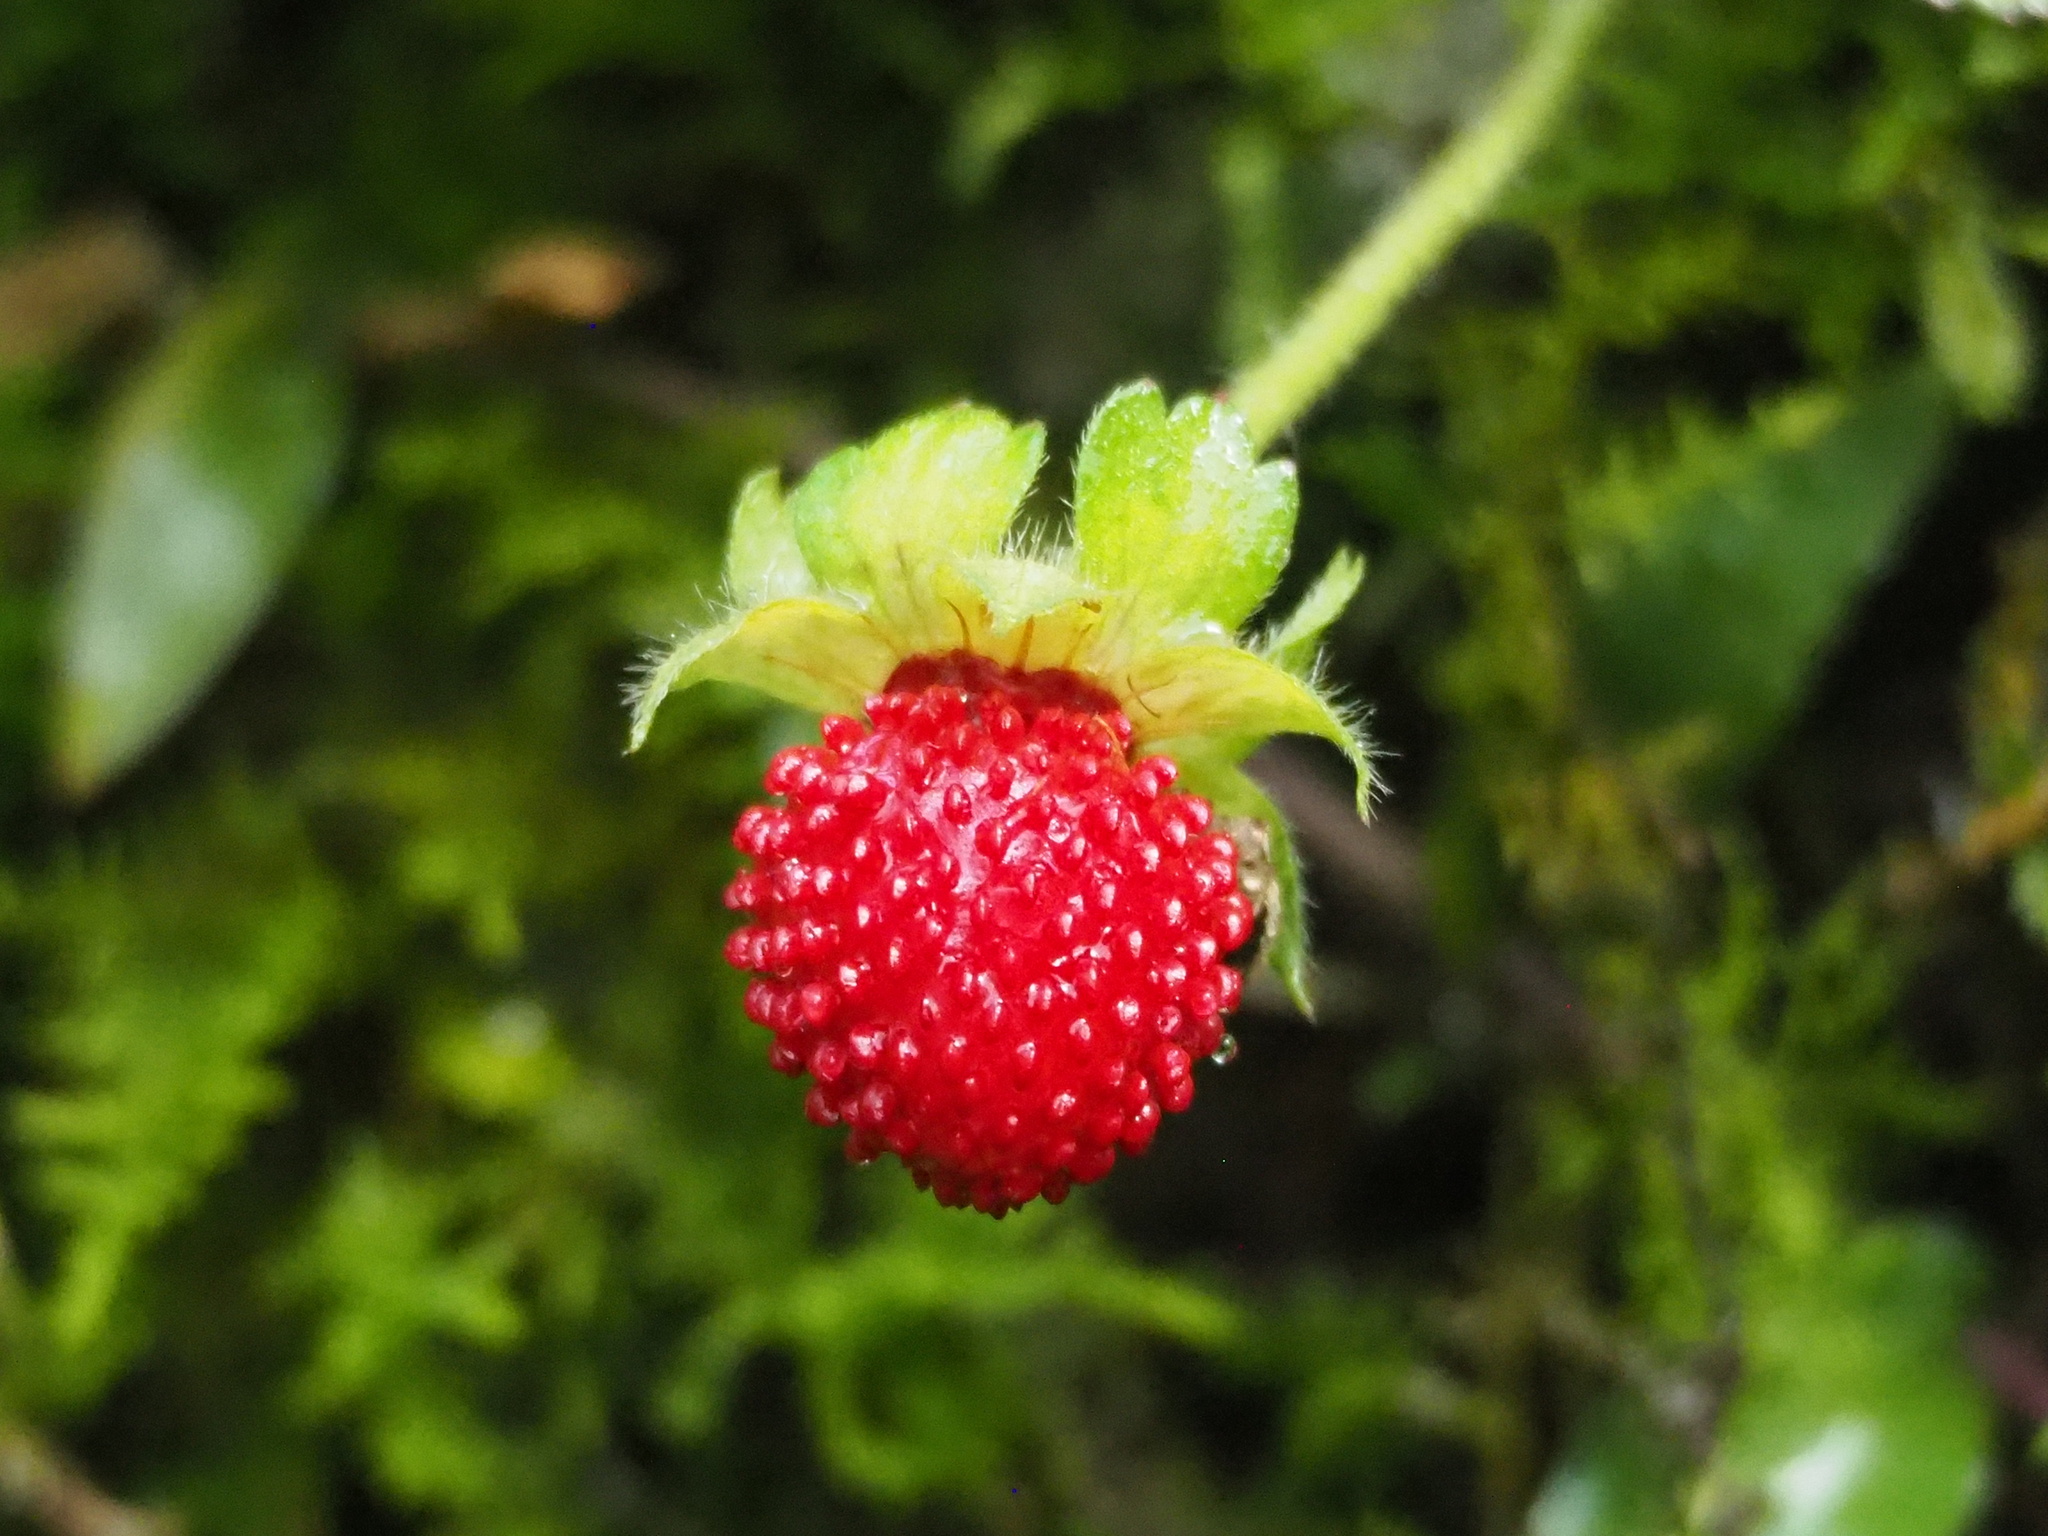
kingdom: Plantae
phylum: Tracheophyta
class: Magnoliopsida
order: Rosales
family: Rosaceae
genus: Potentilla
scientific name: Potentilla indica
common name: Yellow-flowered strawberry
